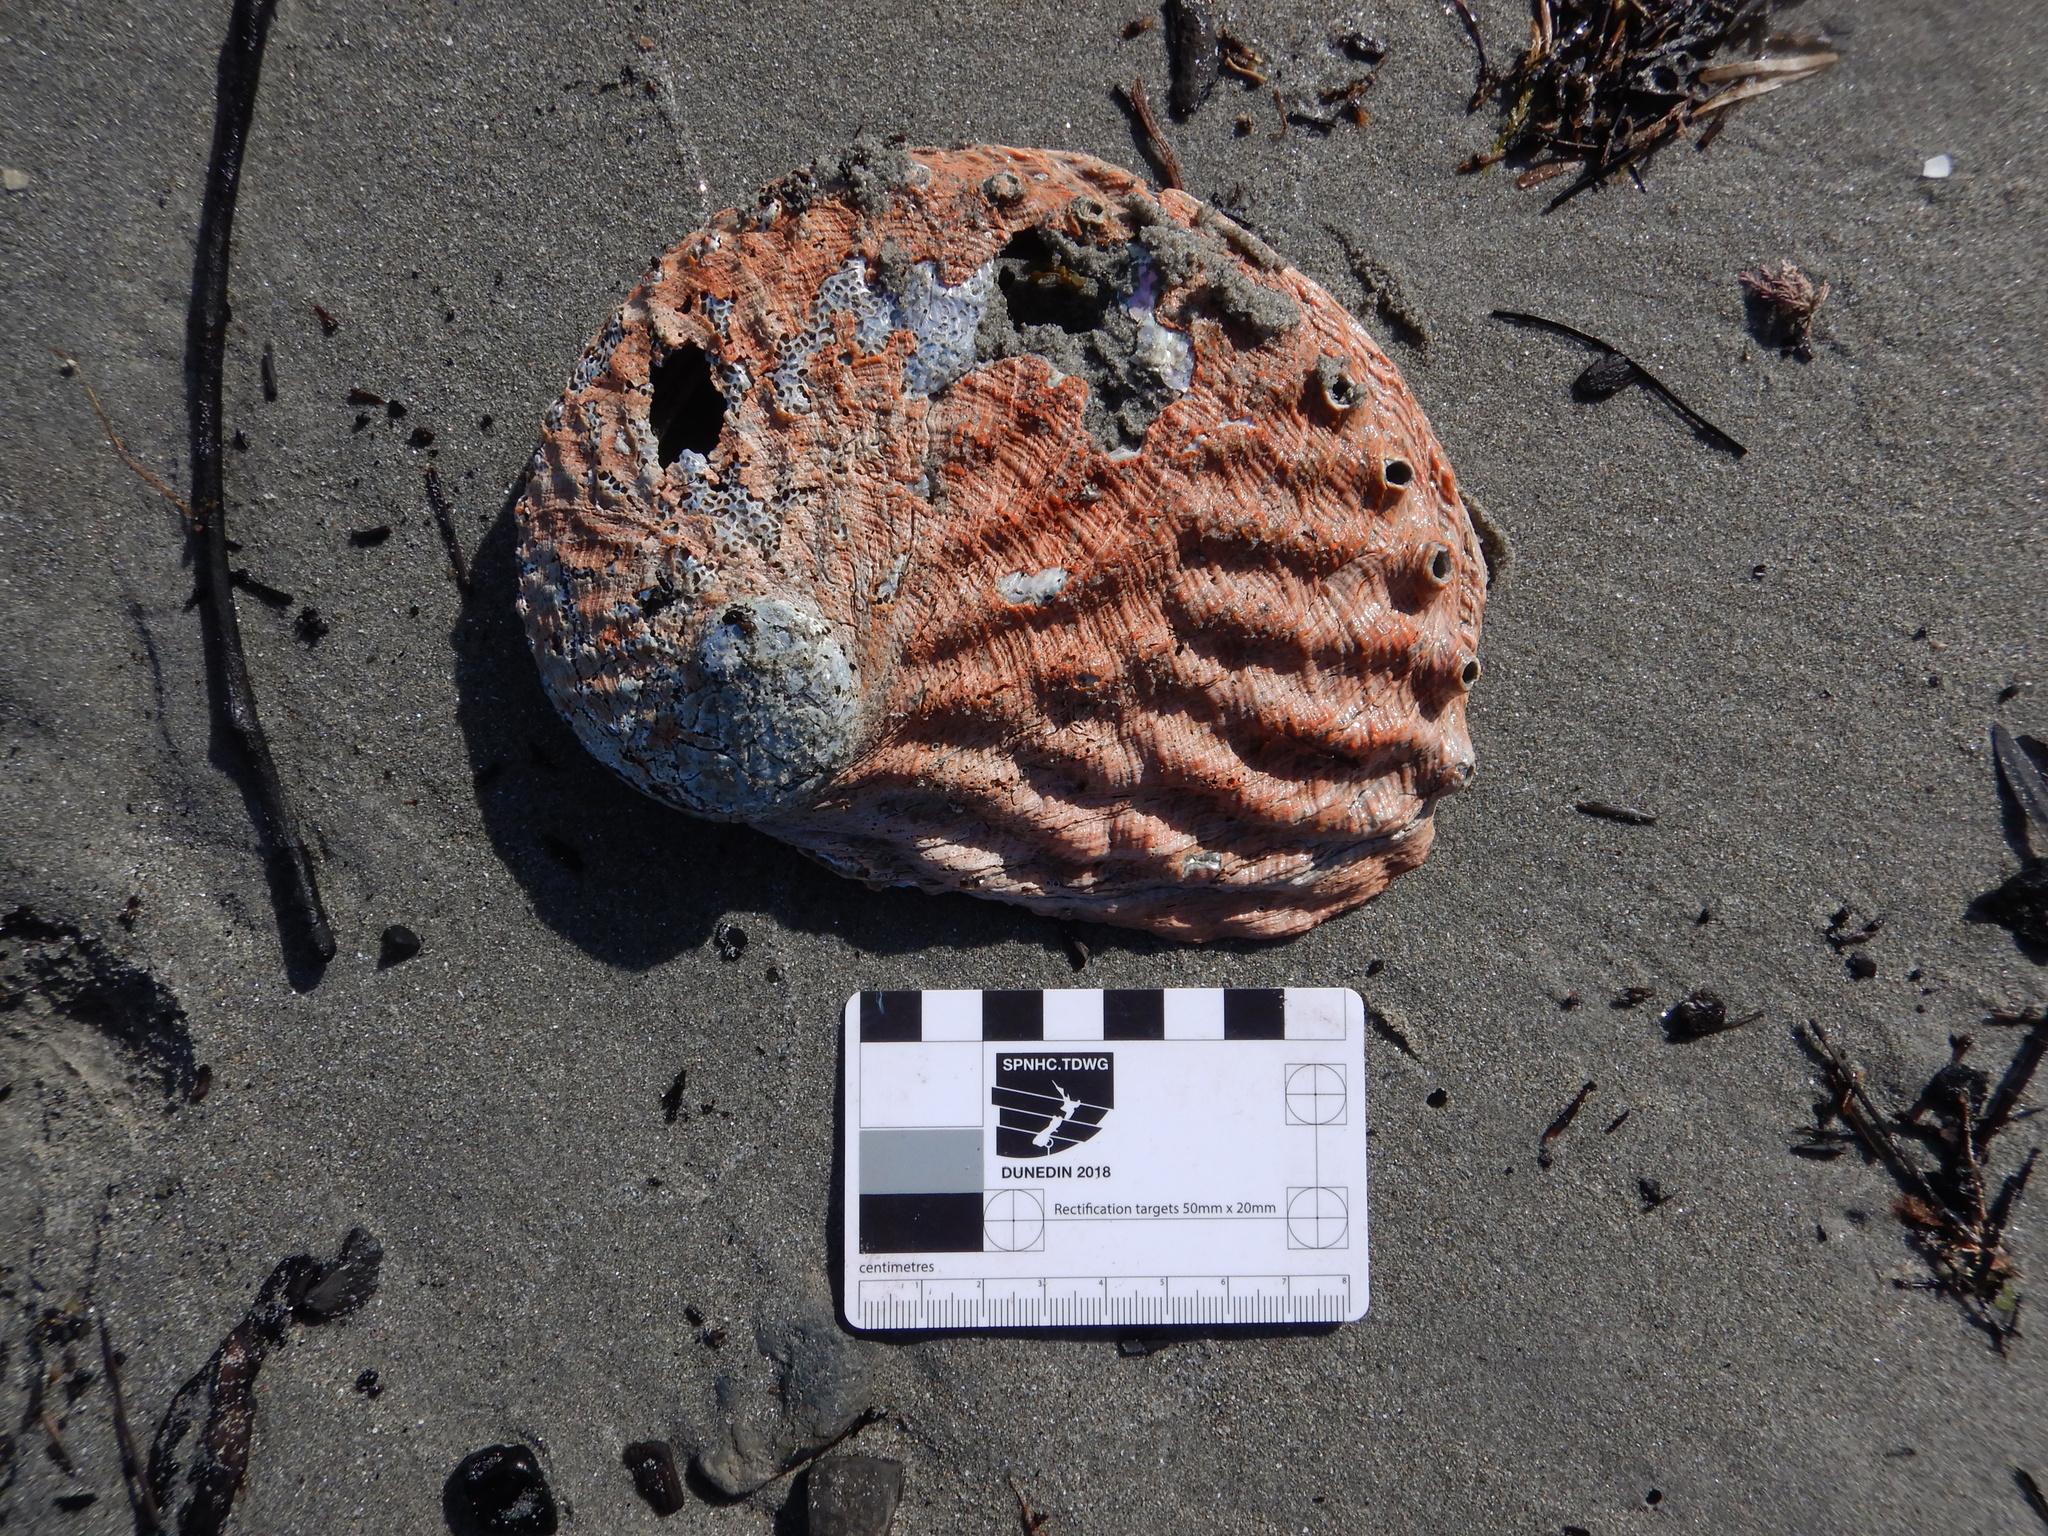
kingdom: Animalia
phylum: Mollusca
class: Gastropoda
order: Lepetellida
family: Haliotidae
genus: Haliotis
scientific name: Haliotis rubra
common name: Blacklip abalone
